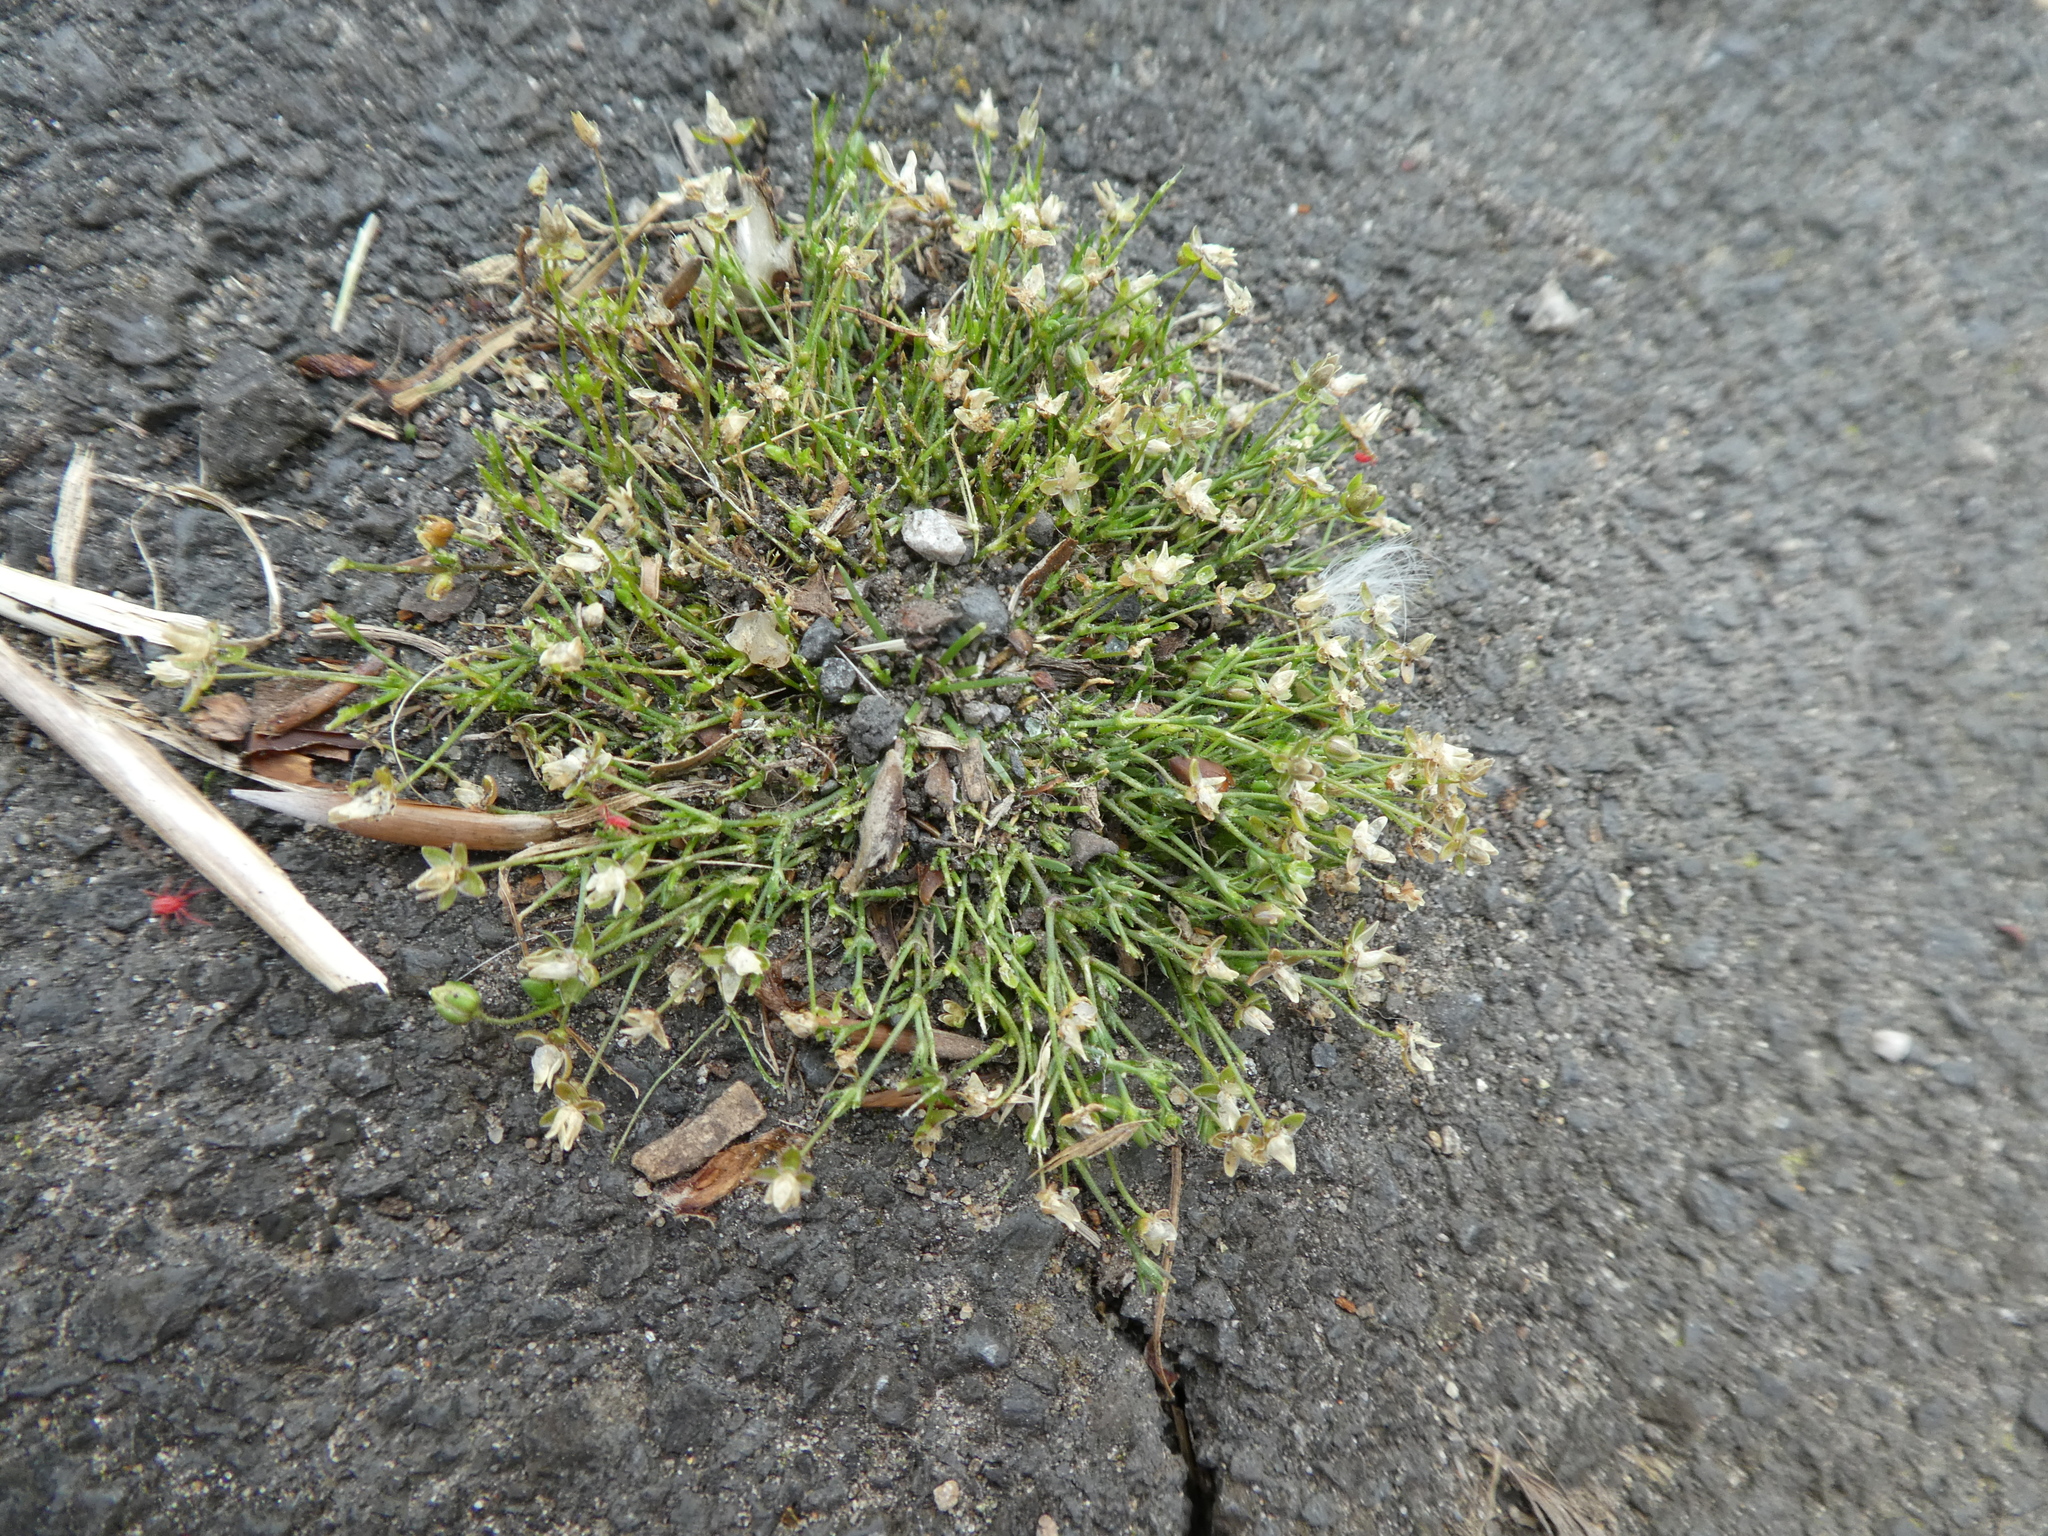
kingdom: Plantae
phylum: Tracheophyta
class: Magnoliopsida
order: Caryophyllales
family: Caryophyllaceae
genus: Sagina
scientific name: Sagina procumbens
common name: Procumbent pearlwort
